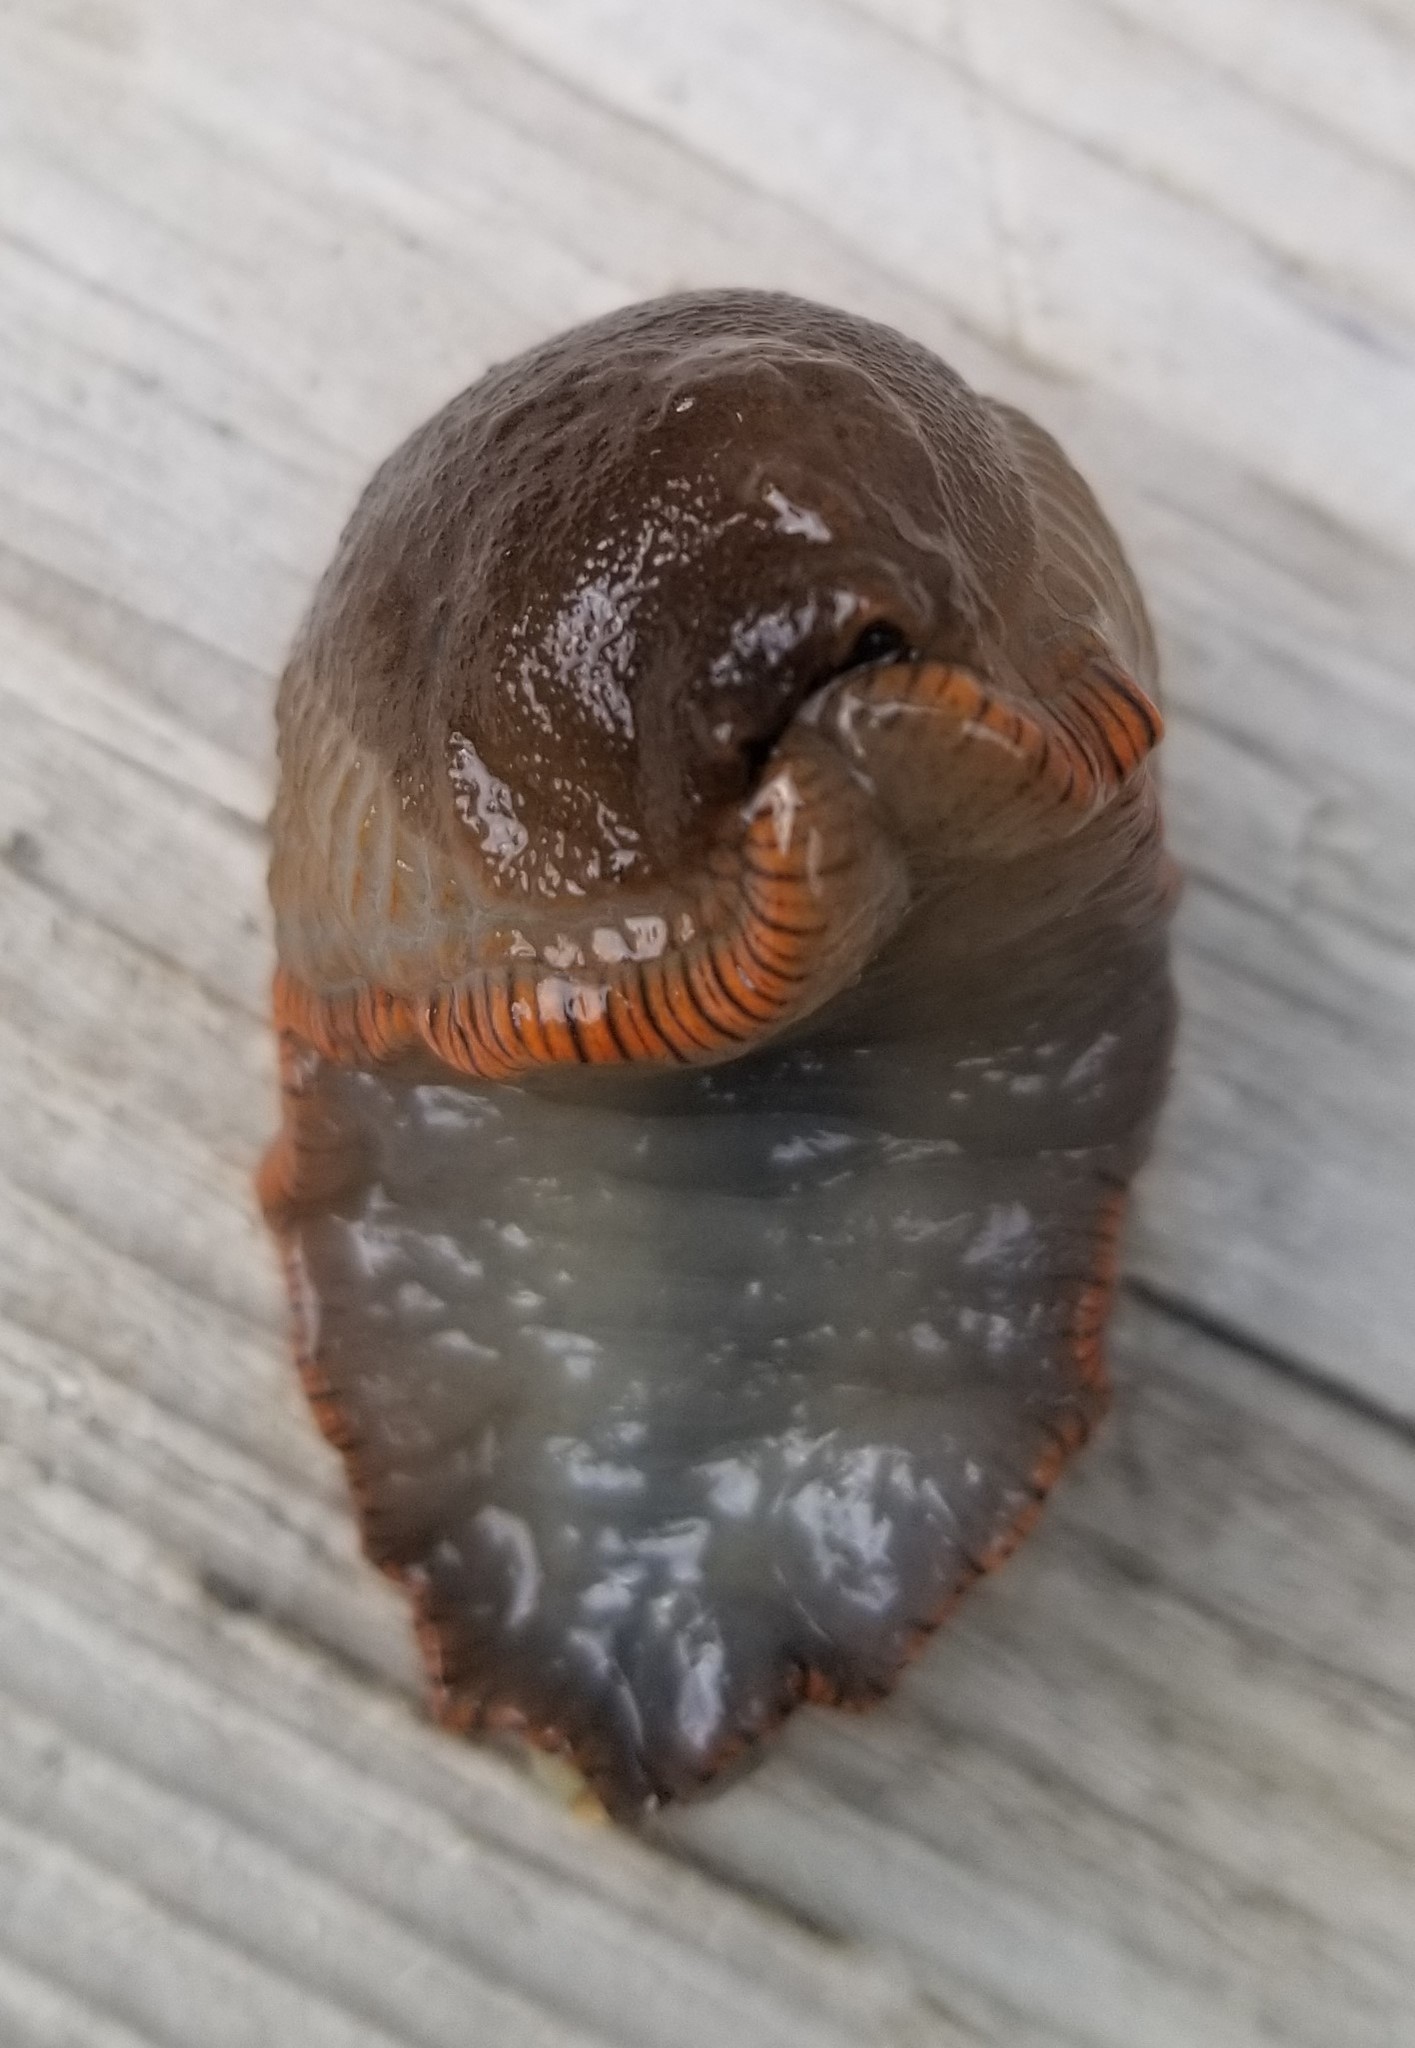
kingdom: Animalia
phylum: Mollusca
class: Gastropoda
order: Stylommatophora
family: Arionidae
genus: Arion
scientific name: Arion
